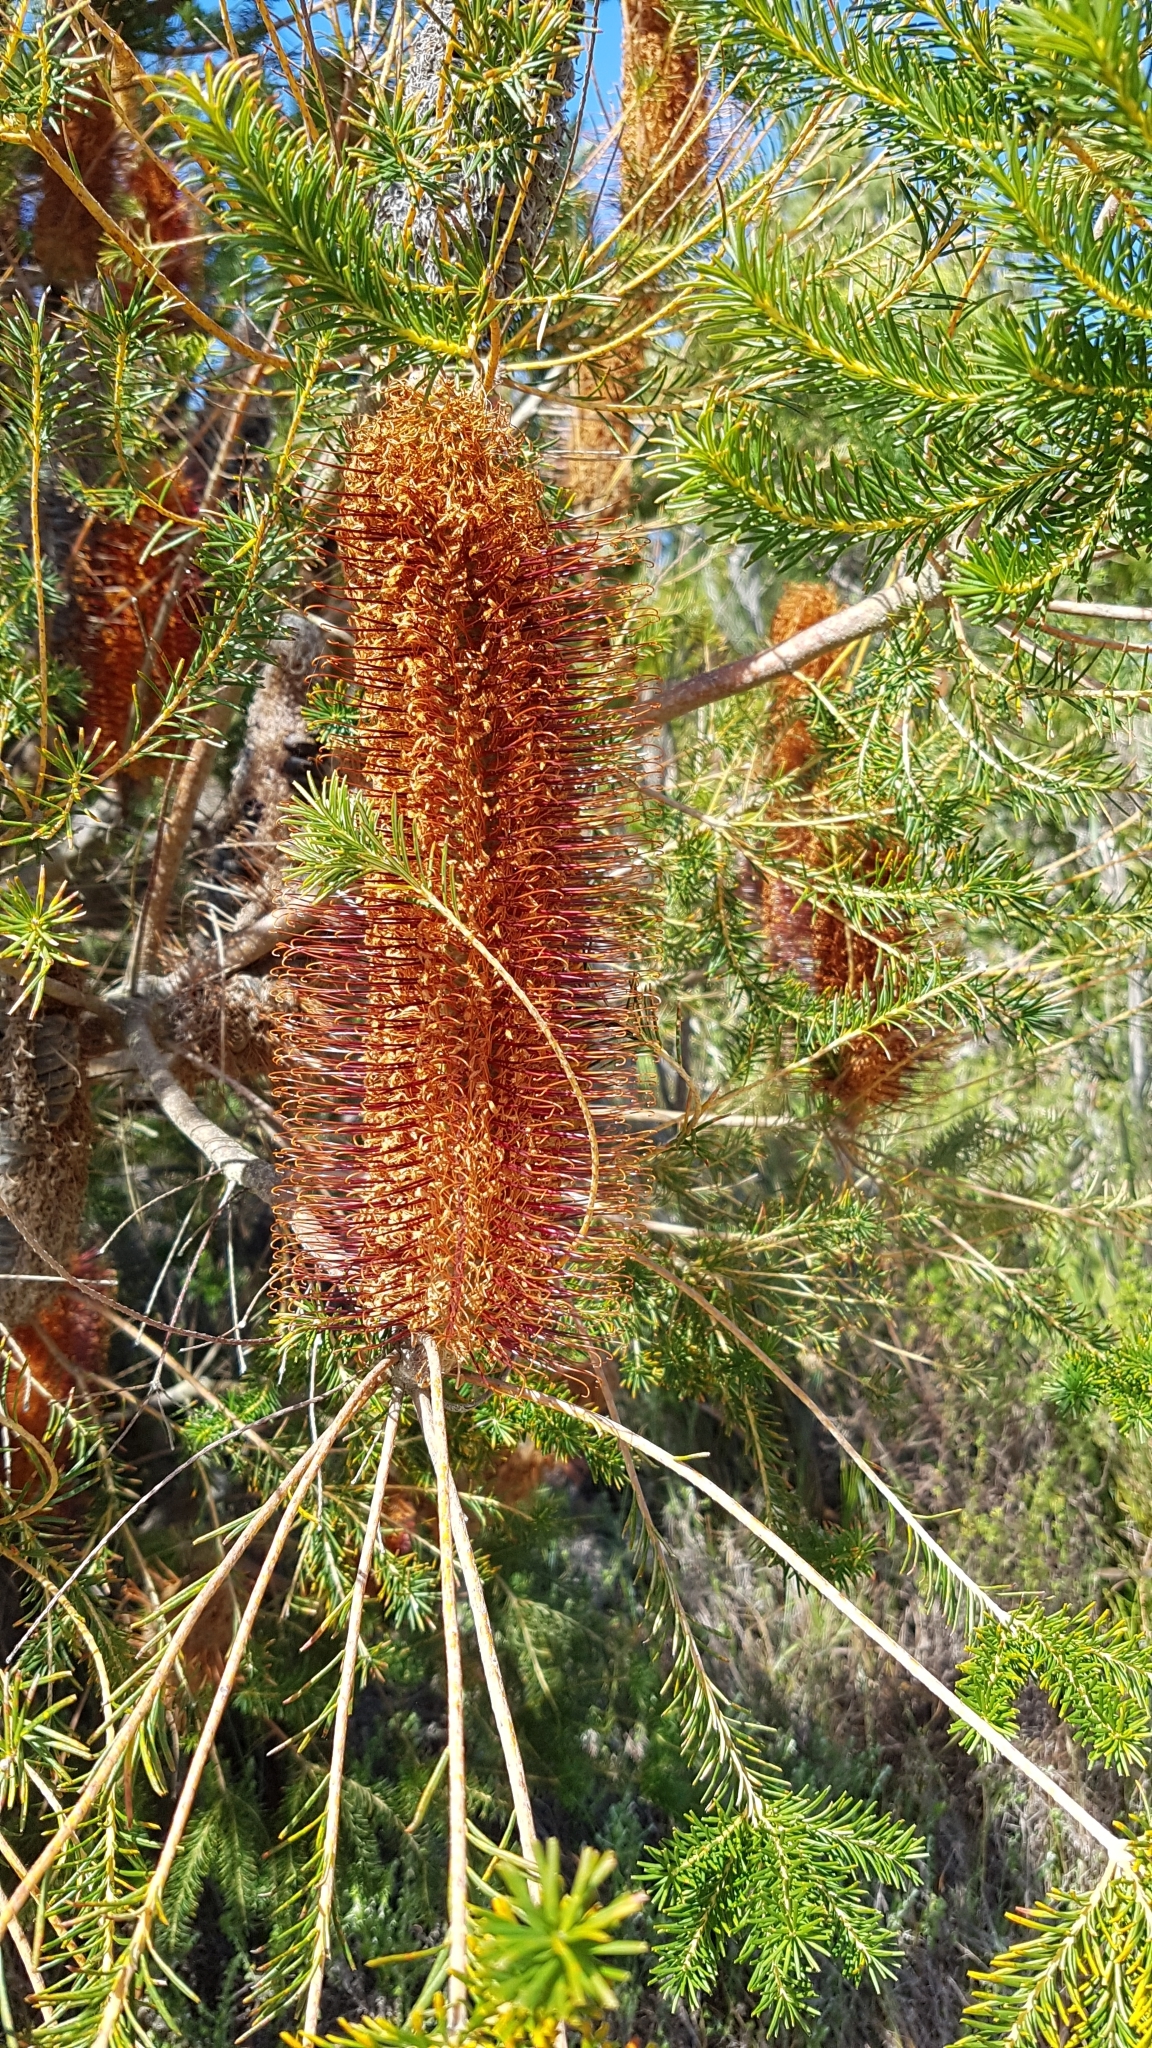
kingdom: Plantae
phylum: Tracheophyta
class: Magnoliopsida
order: Proteales
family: Proteaceae
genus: Banksia
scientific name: Banksia ericifolia
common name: Heath-leaf banksia
